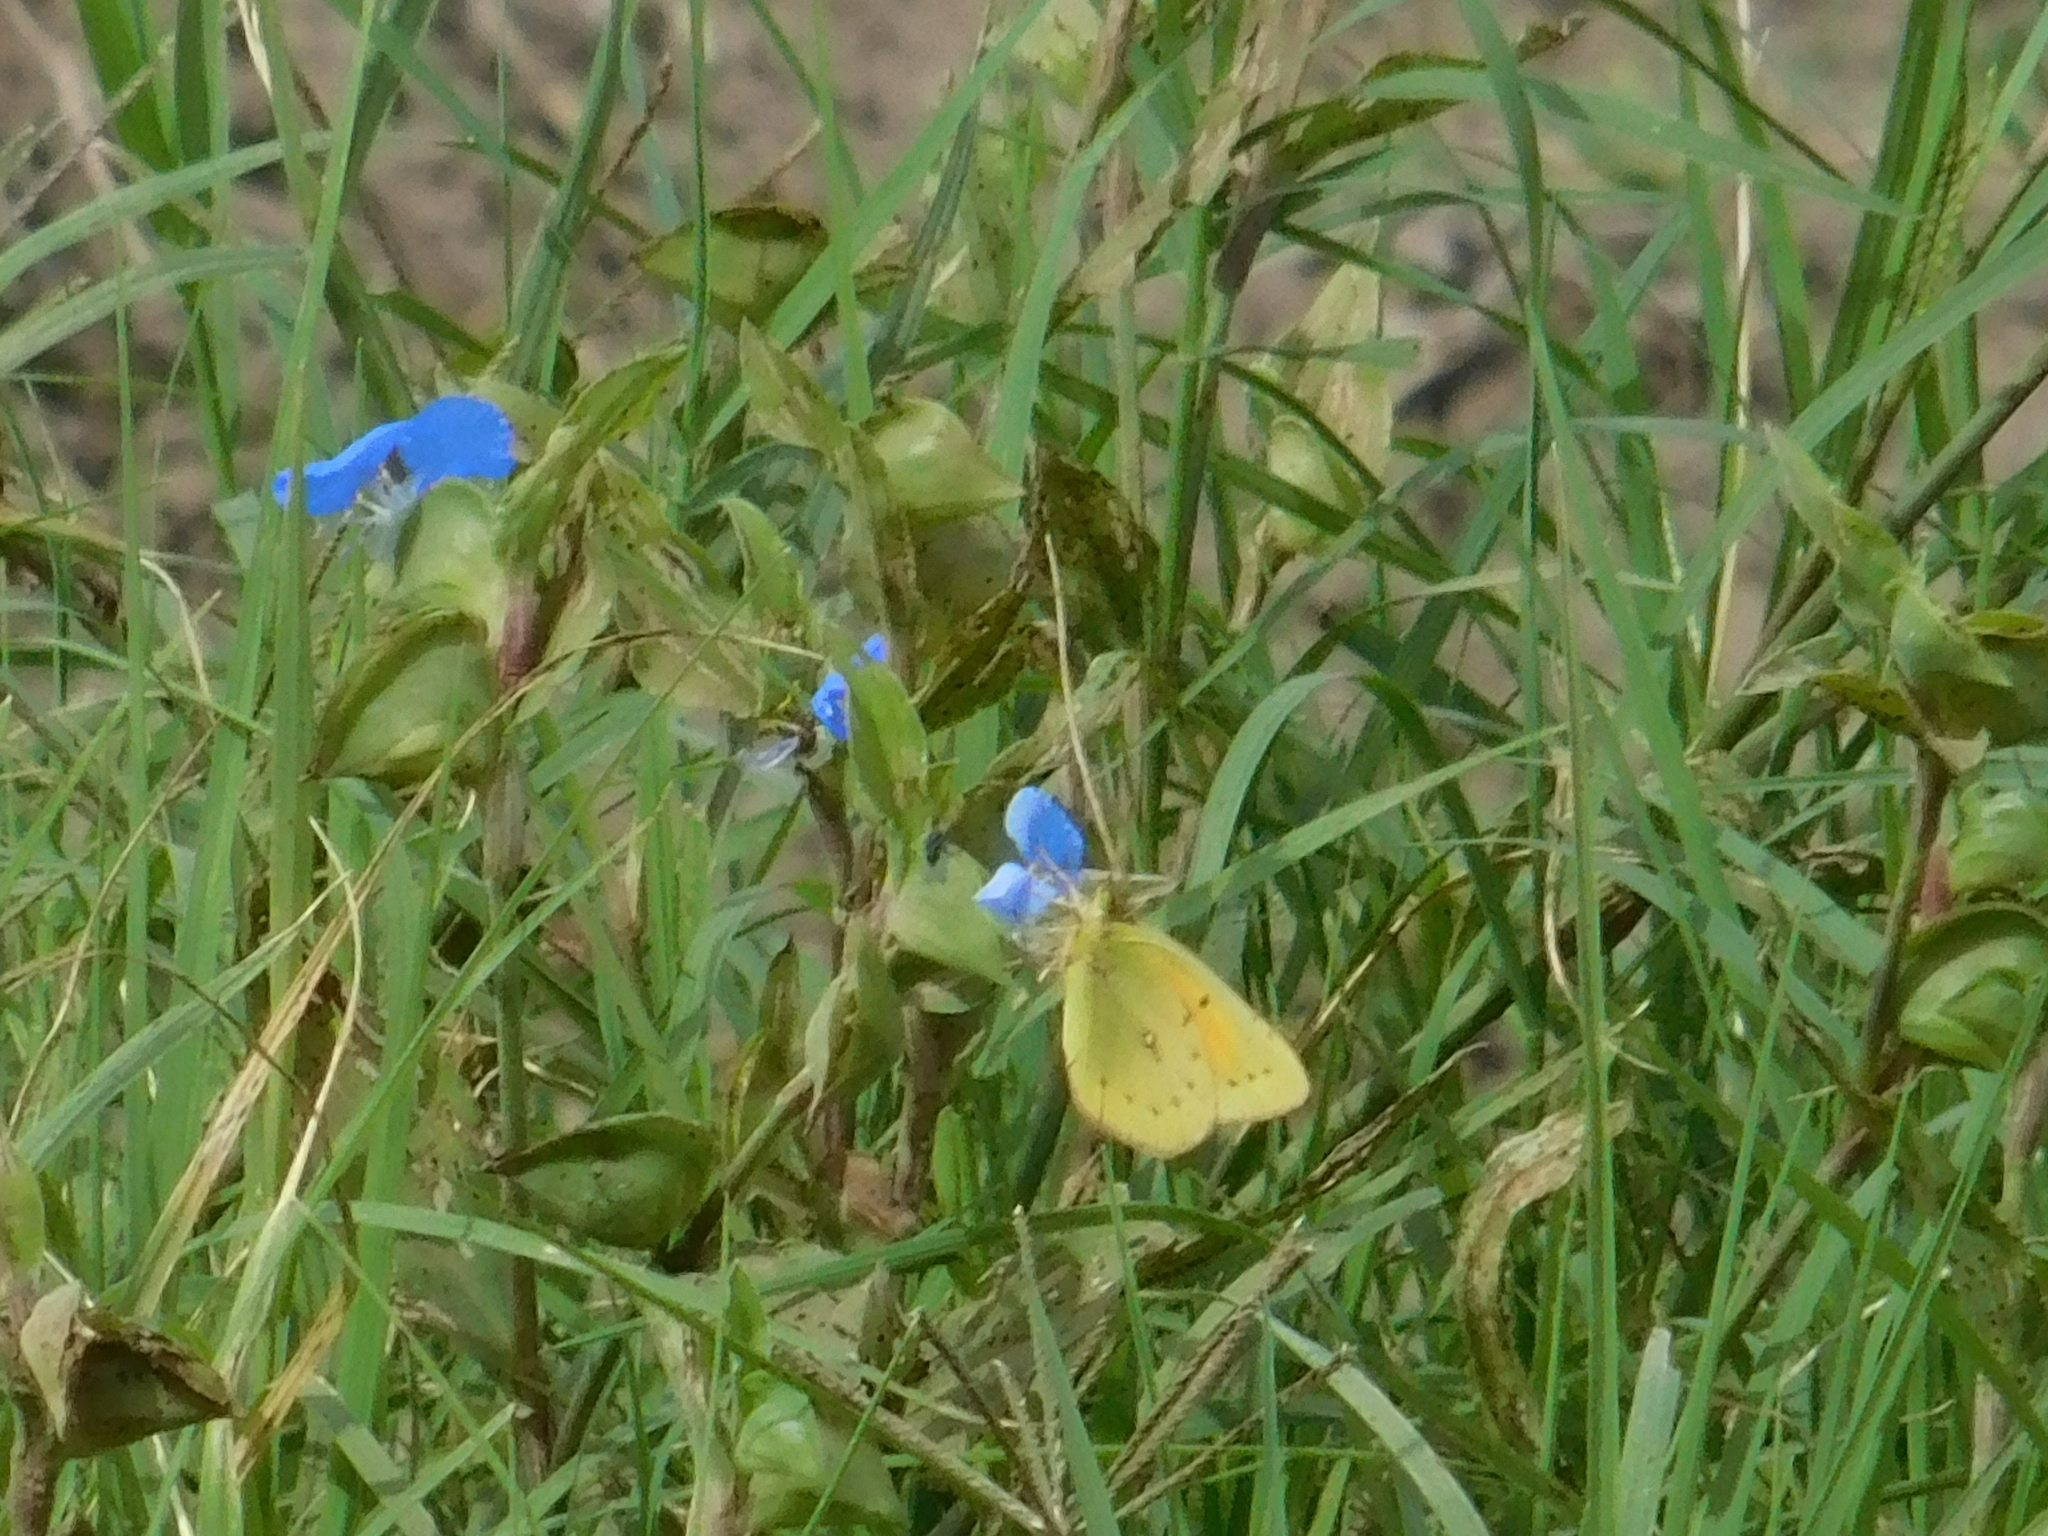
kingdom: Animalia
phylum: Arthropoda
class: Insecta
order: Lepidoptera
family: Pieridae
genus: Colias
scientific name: Colias lesbia
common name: Lesbia clouded yellow
